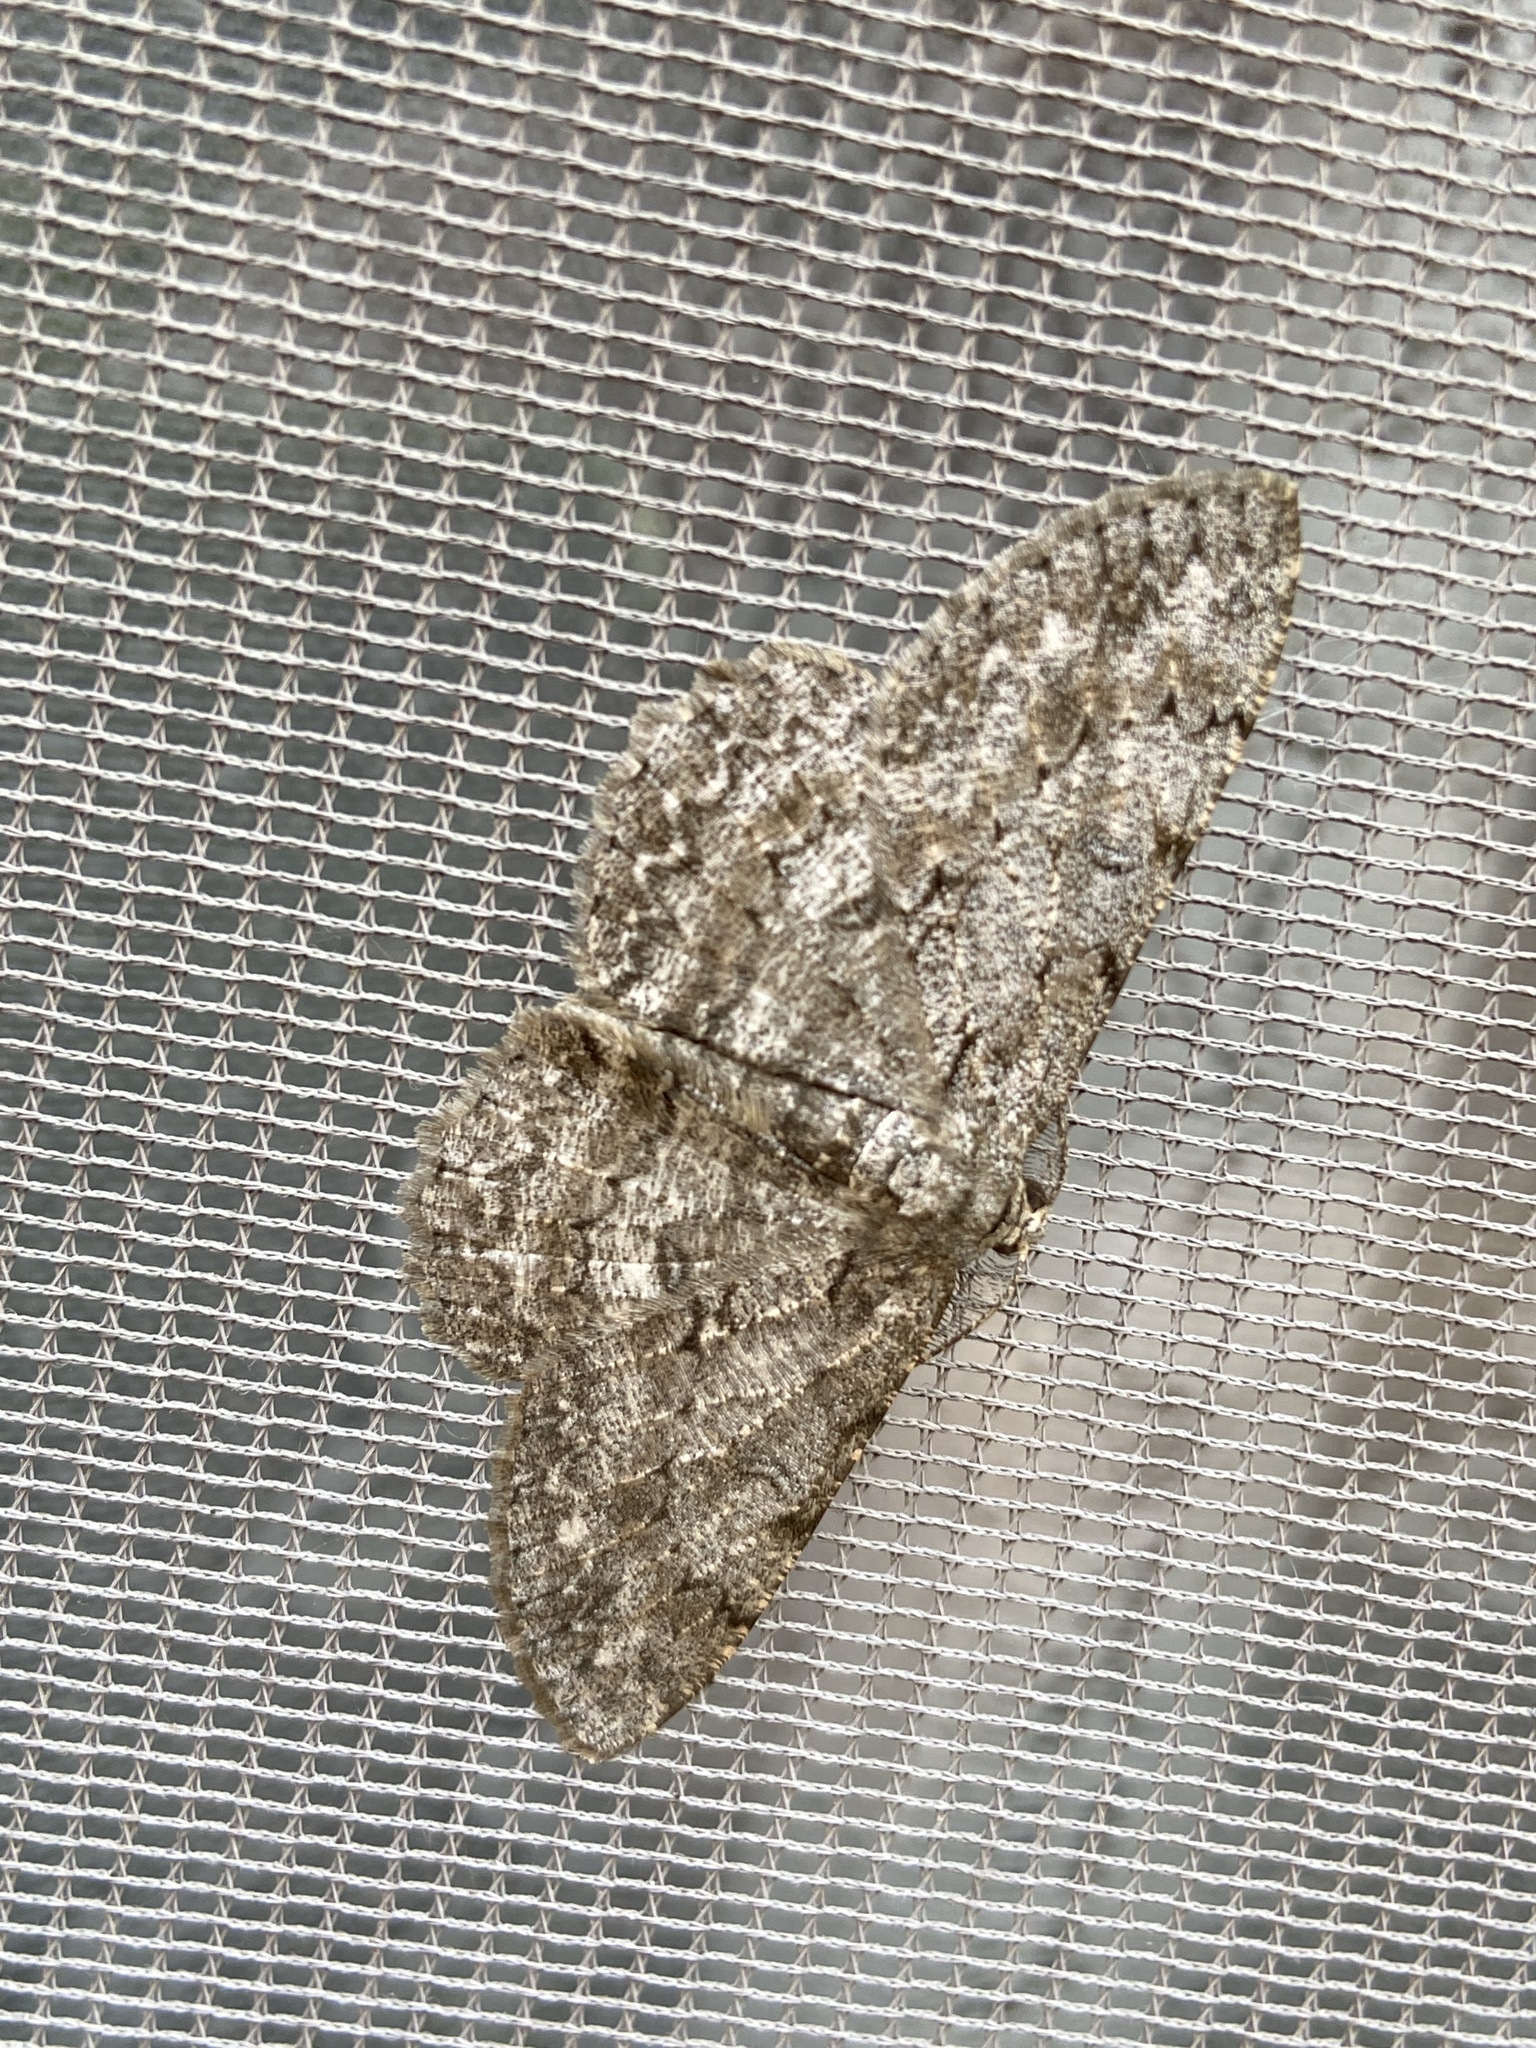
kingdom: Animalia
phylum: Arthropoda
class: Insecta
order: Lepidoptera
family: Geometridae
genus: Hypomecis
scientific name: Hypomecis punctinalis
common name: Pale oak beauty
